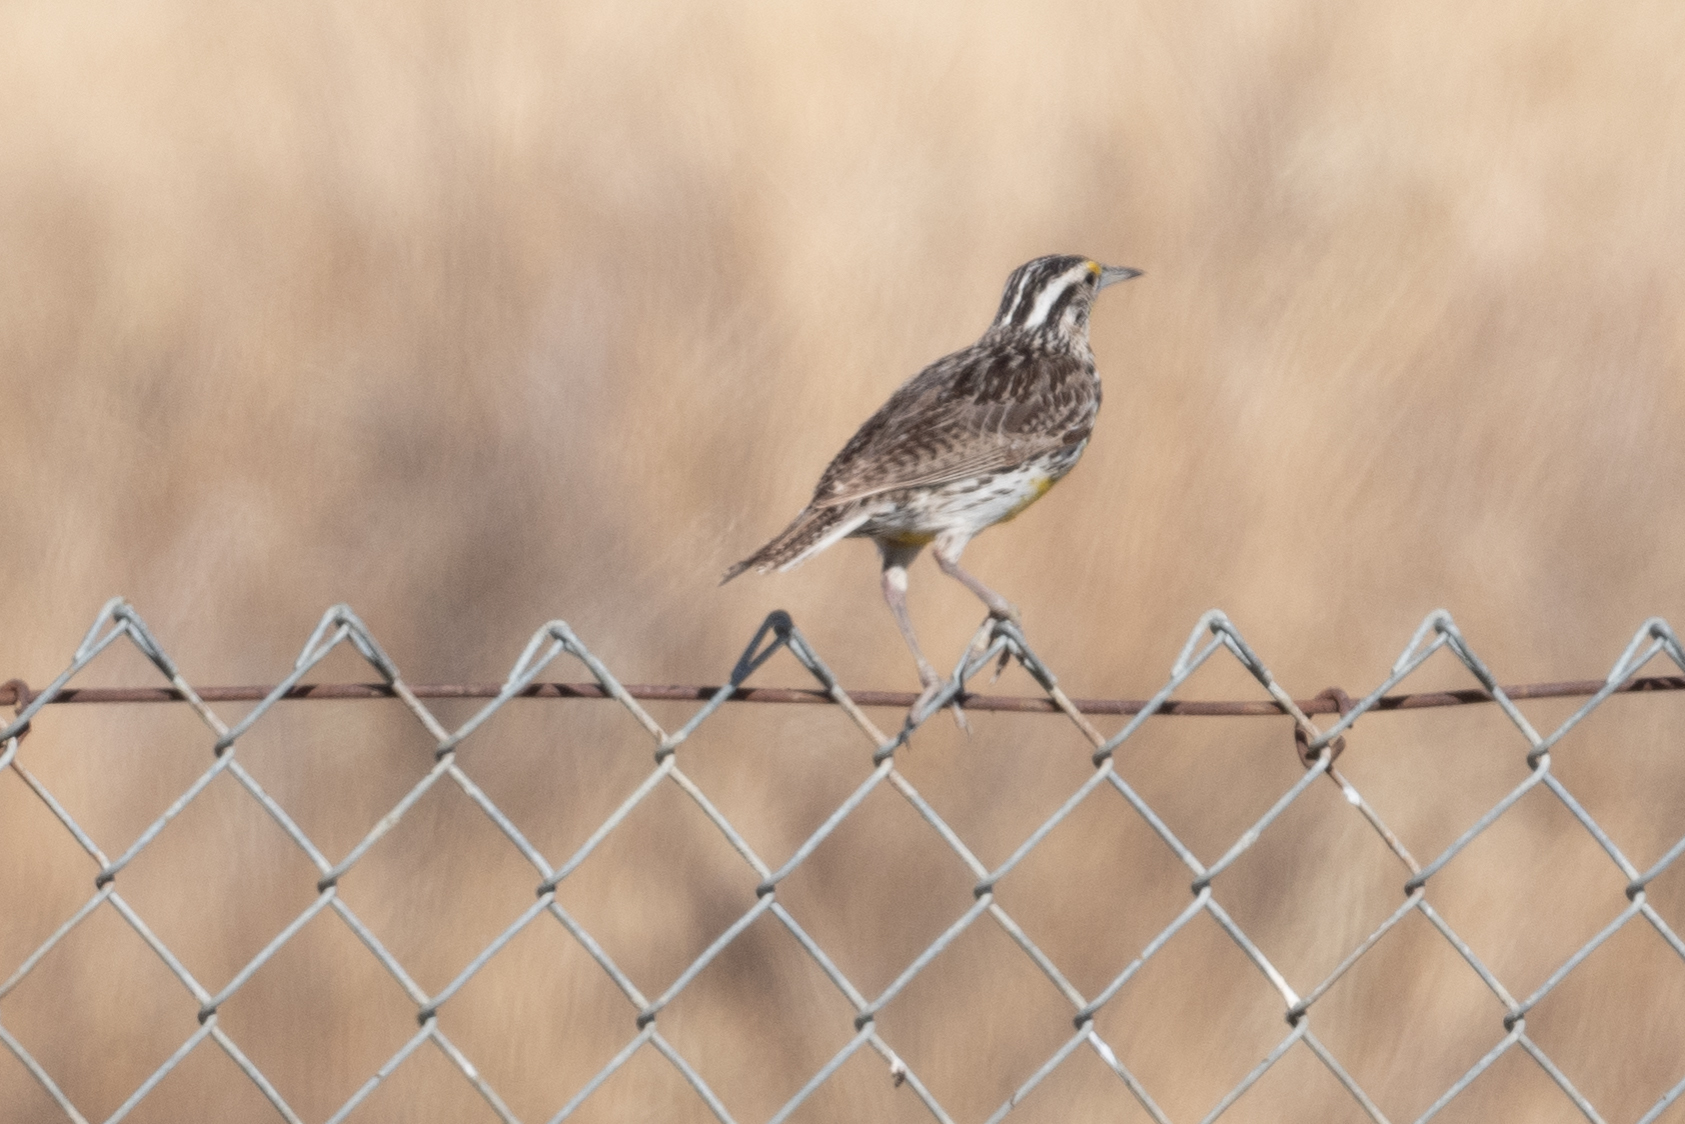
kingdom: Animalia
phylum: Chordata
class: Aves
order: Passeriformes
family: Icteridae
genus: Sturnella
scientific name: Sturnella neglecta
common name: Western meadowlark
